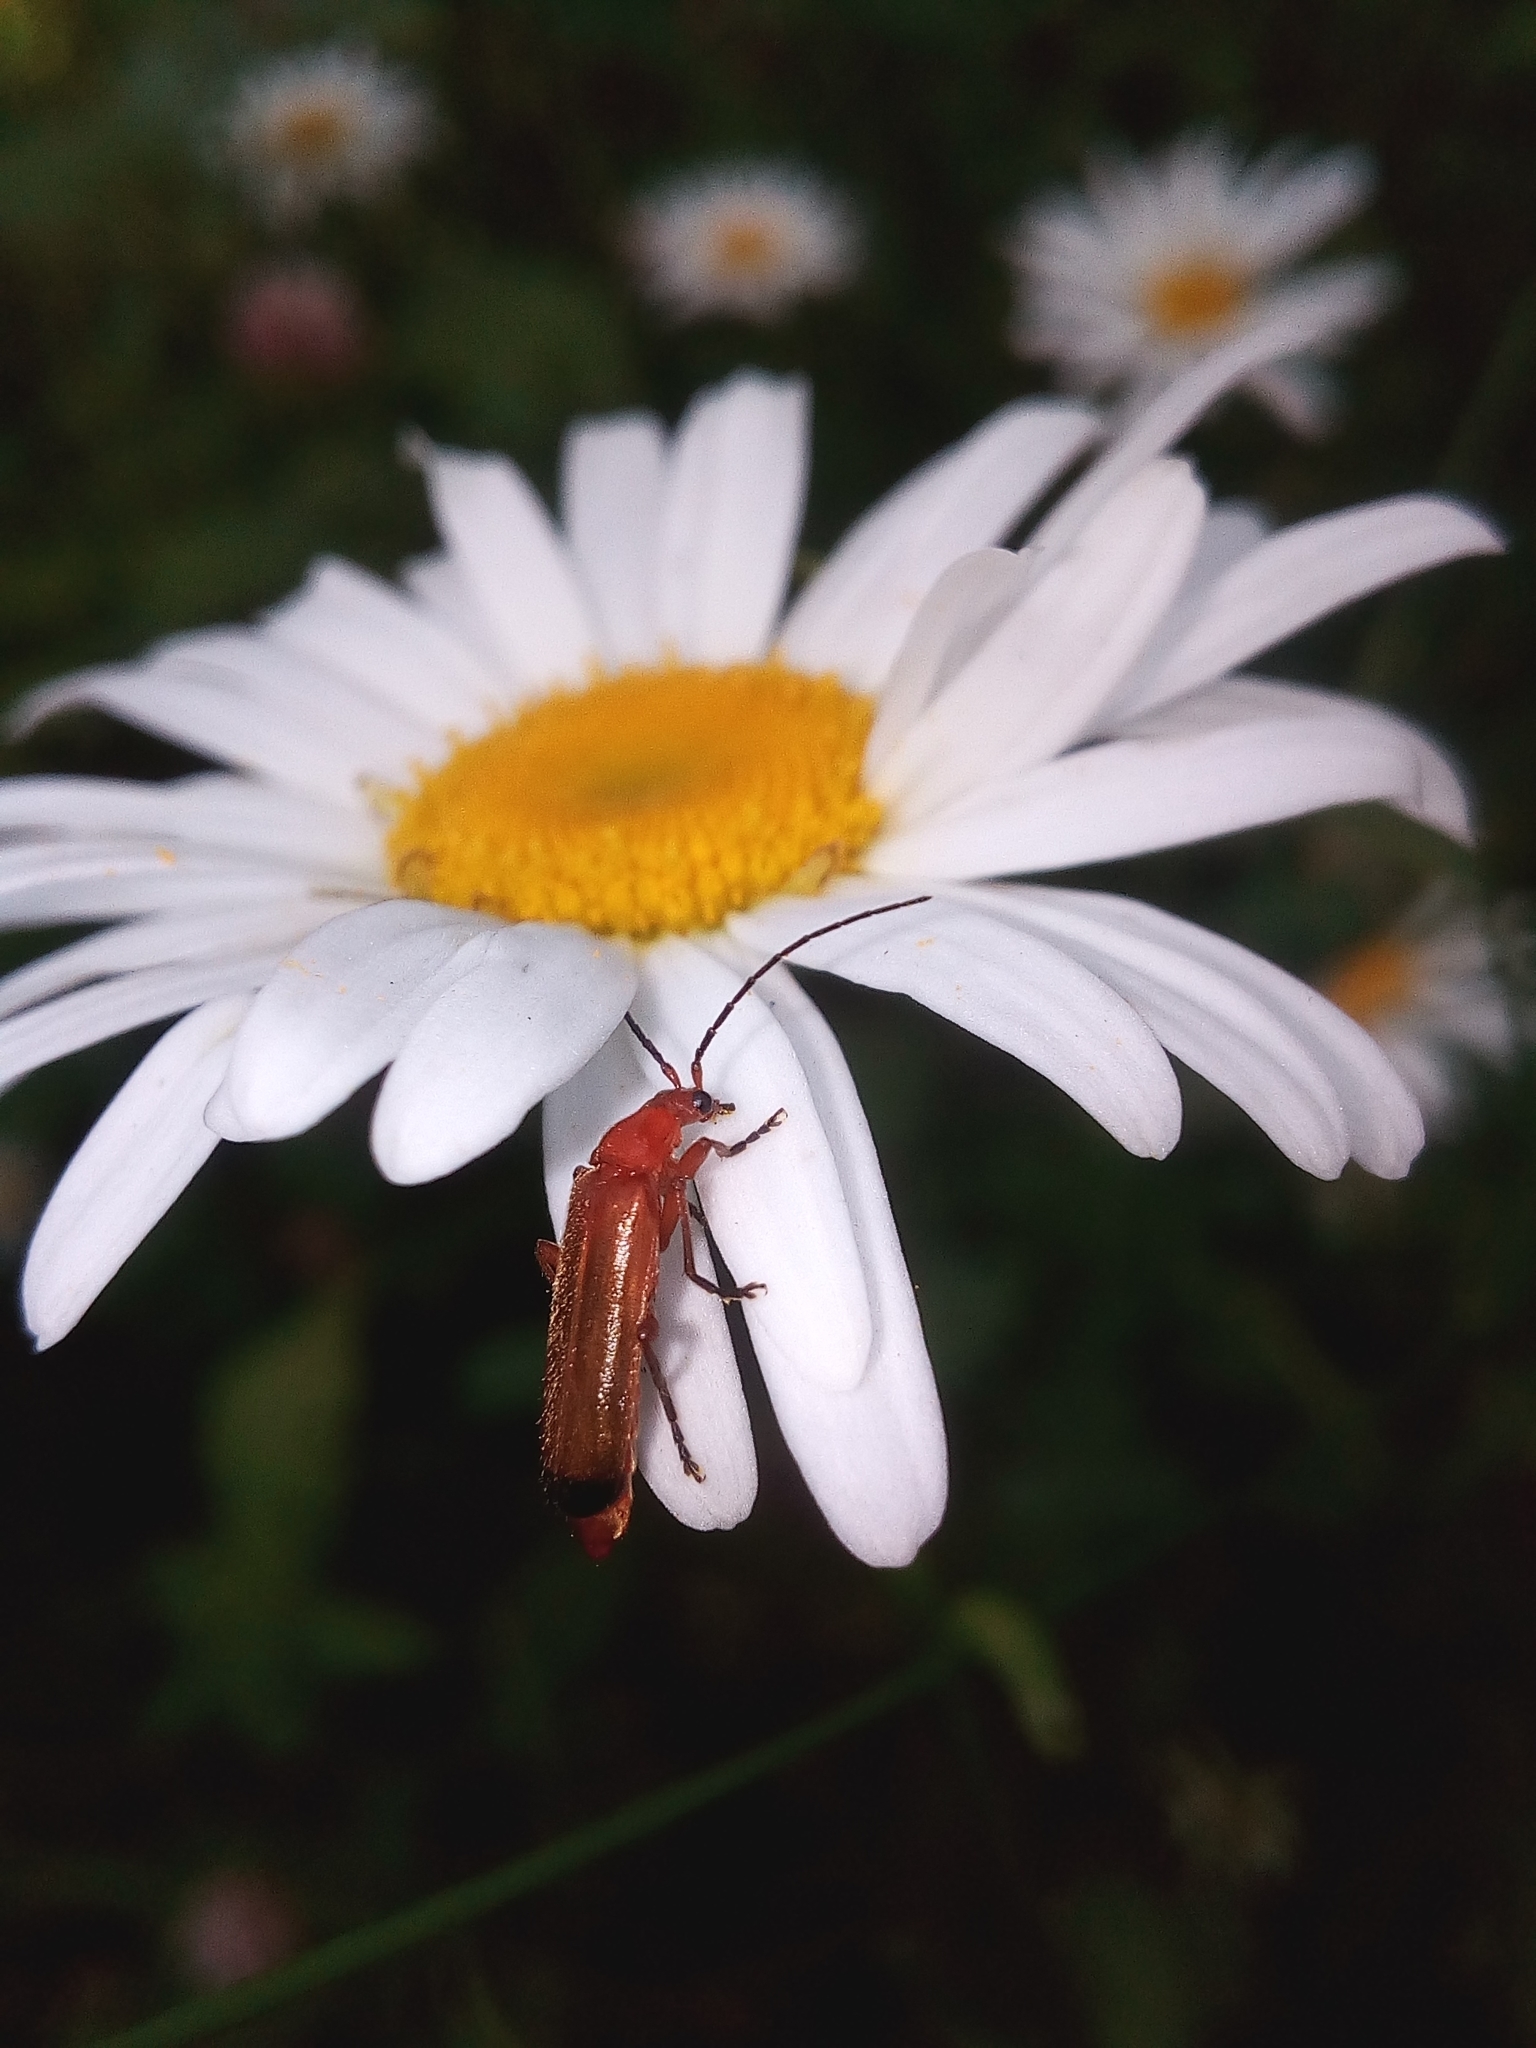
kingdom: Animalia
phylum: Arthropoda
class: Insecta
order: Coleoptera
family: Cantharidae
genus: Rhagonycha
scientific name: Rhagonycha fulva
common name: Common red soldier beetle
